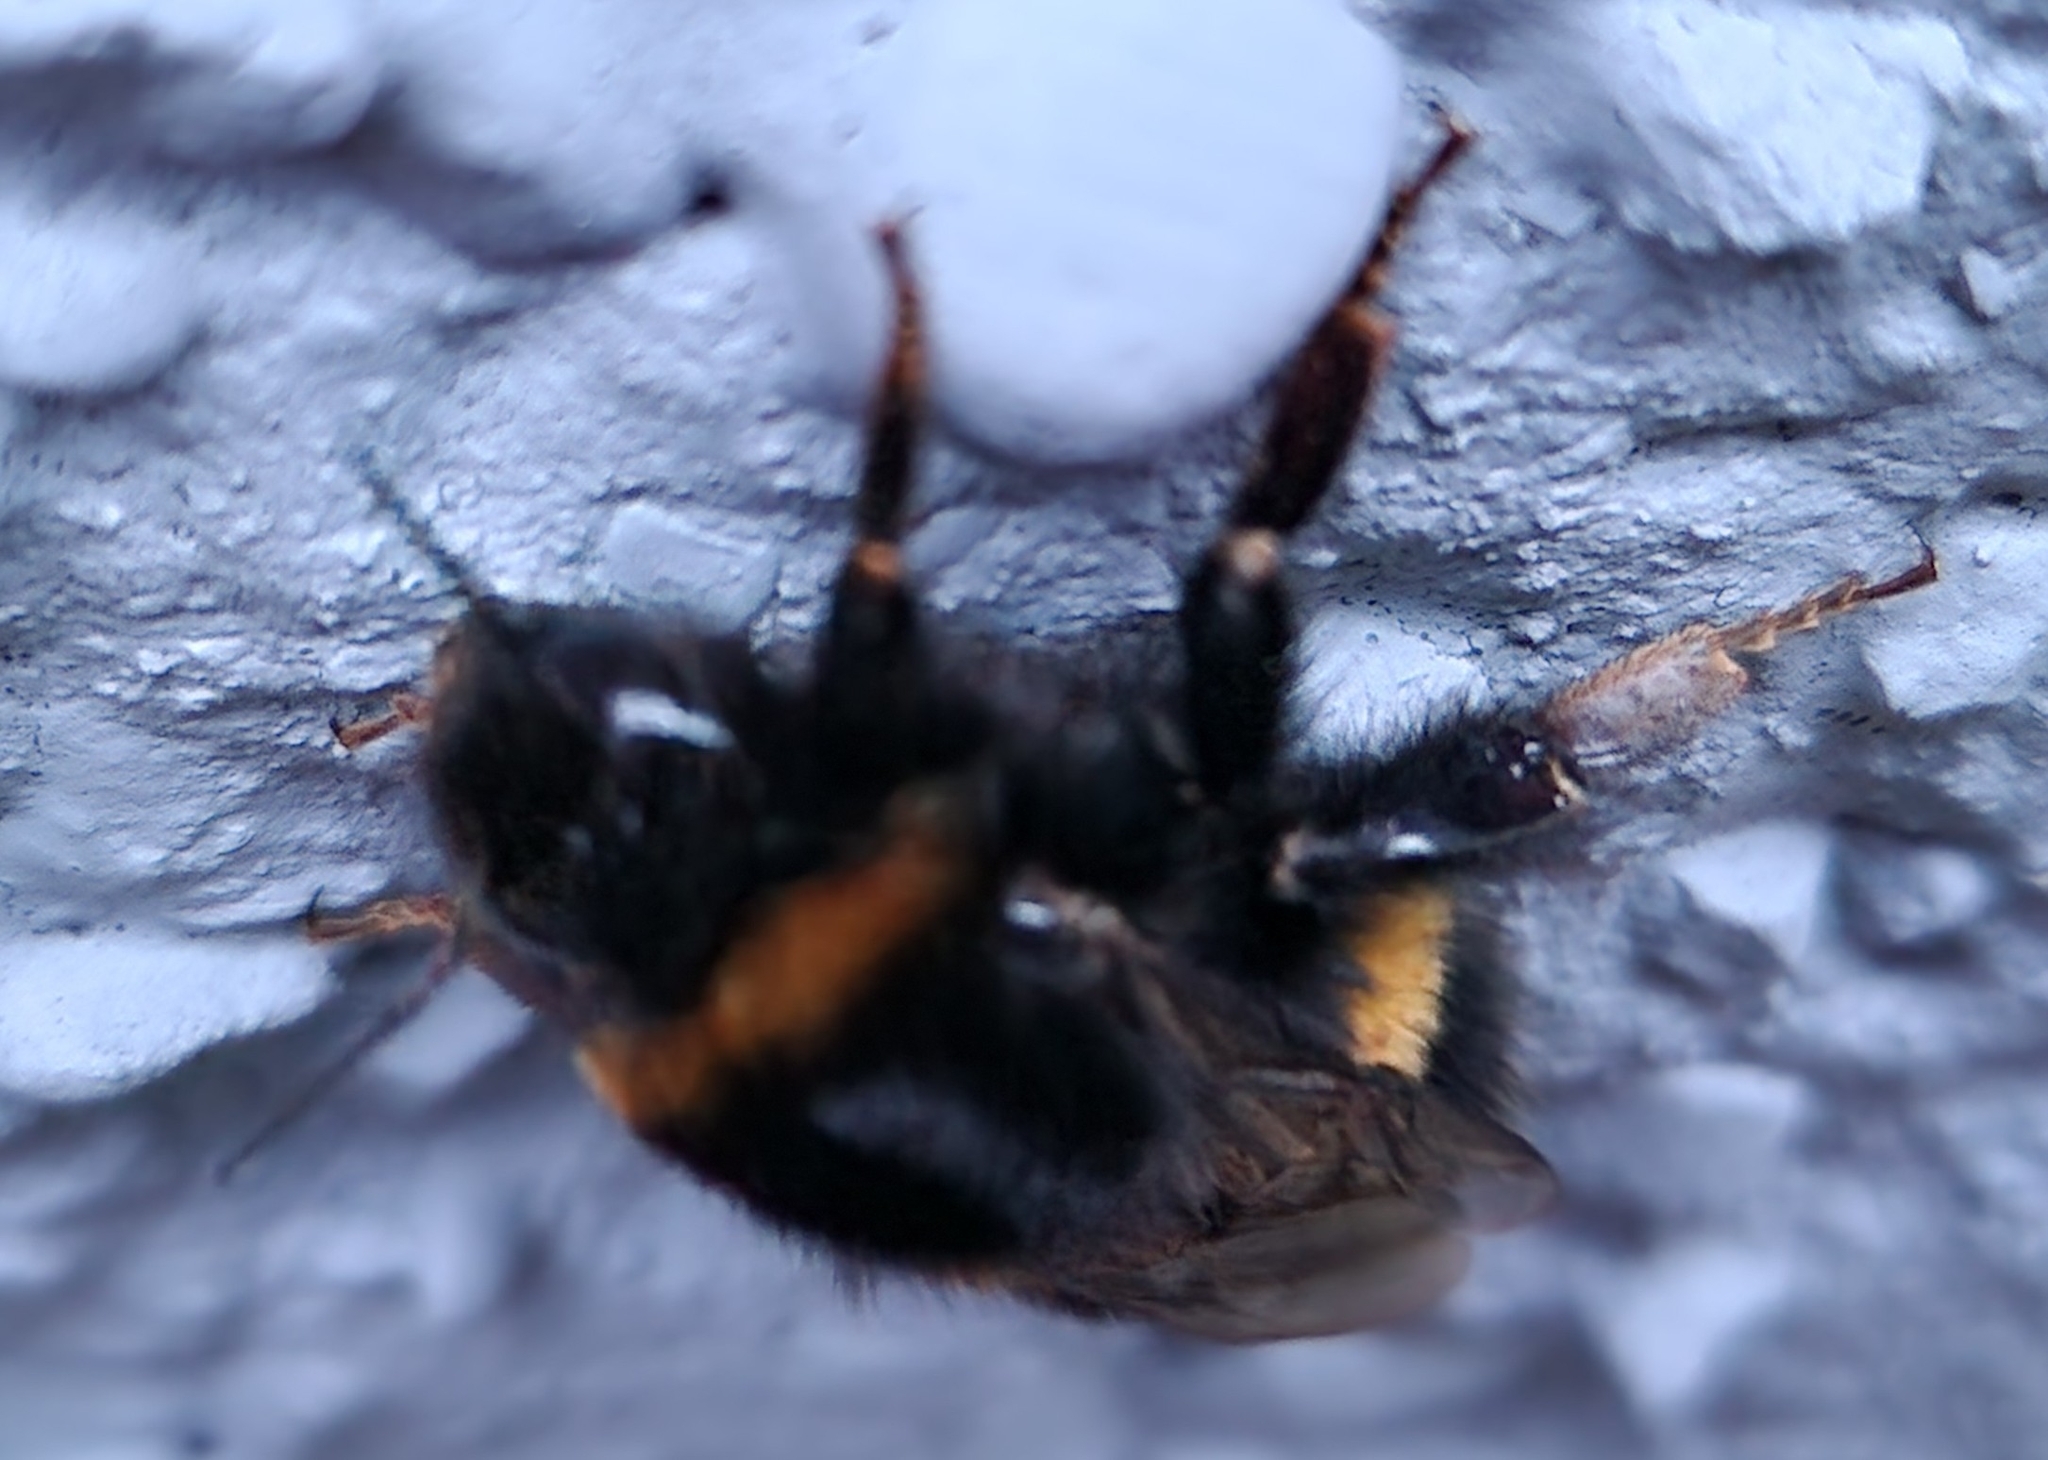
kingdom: Animalia
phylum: Arthropoda
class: Insecta
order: Hymenoptera
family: Apidae
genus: Bombus
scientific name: Bombus terrestris
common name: Buff-tailed bumblebee
